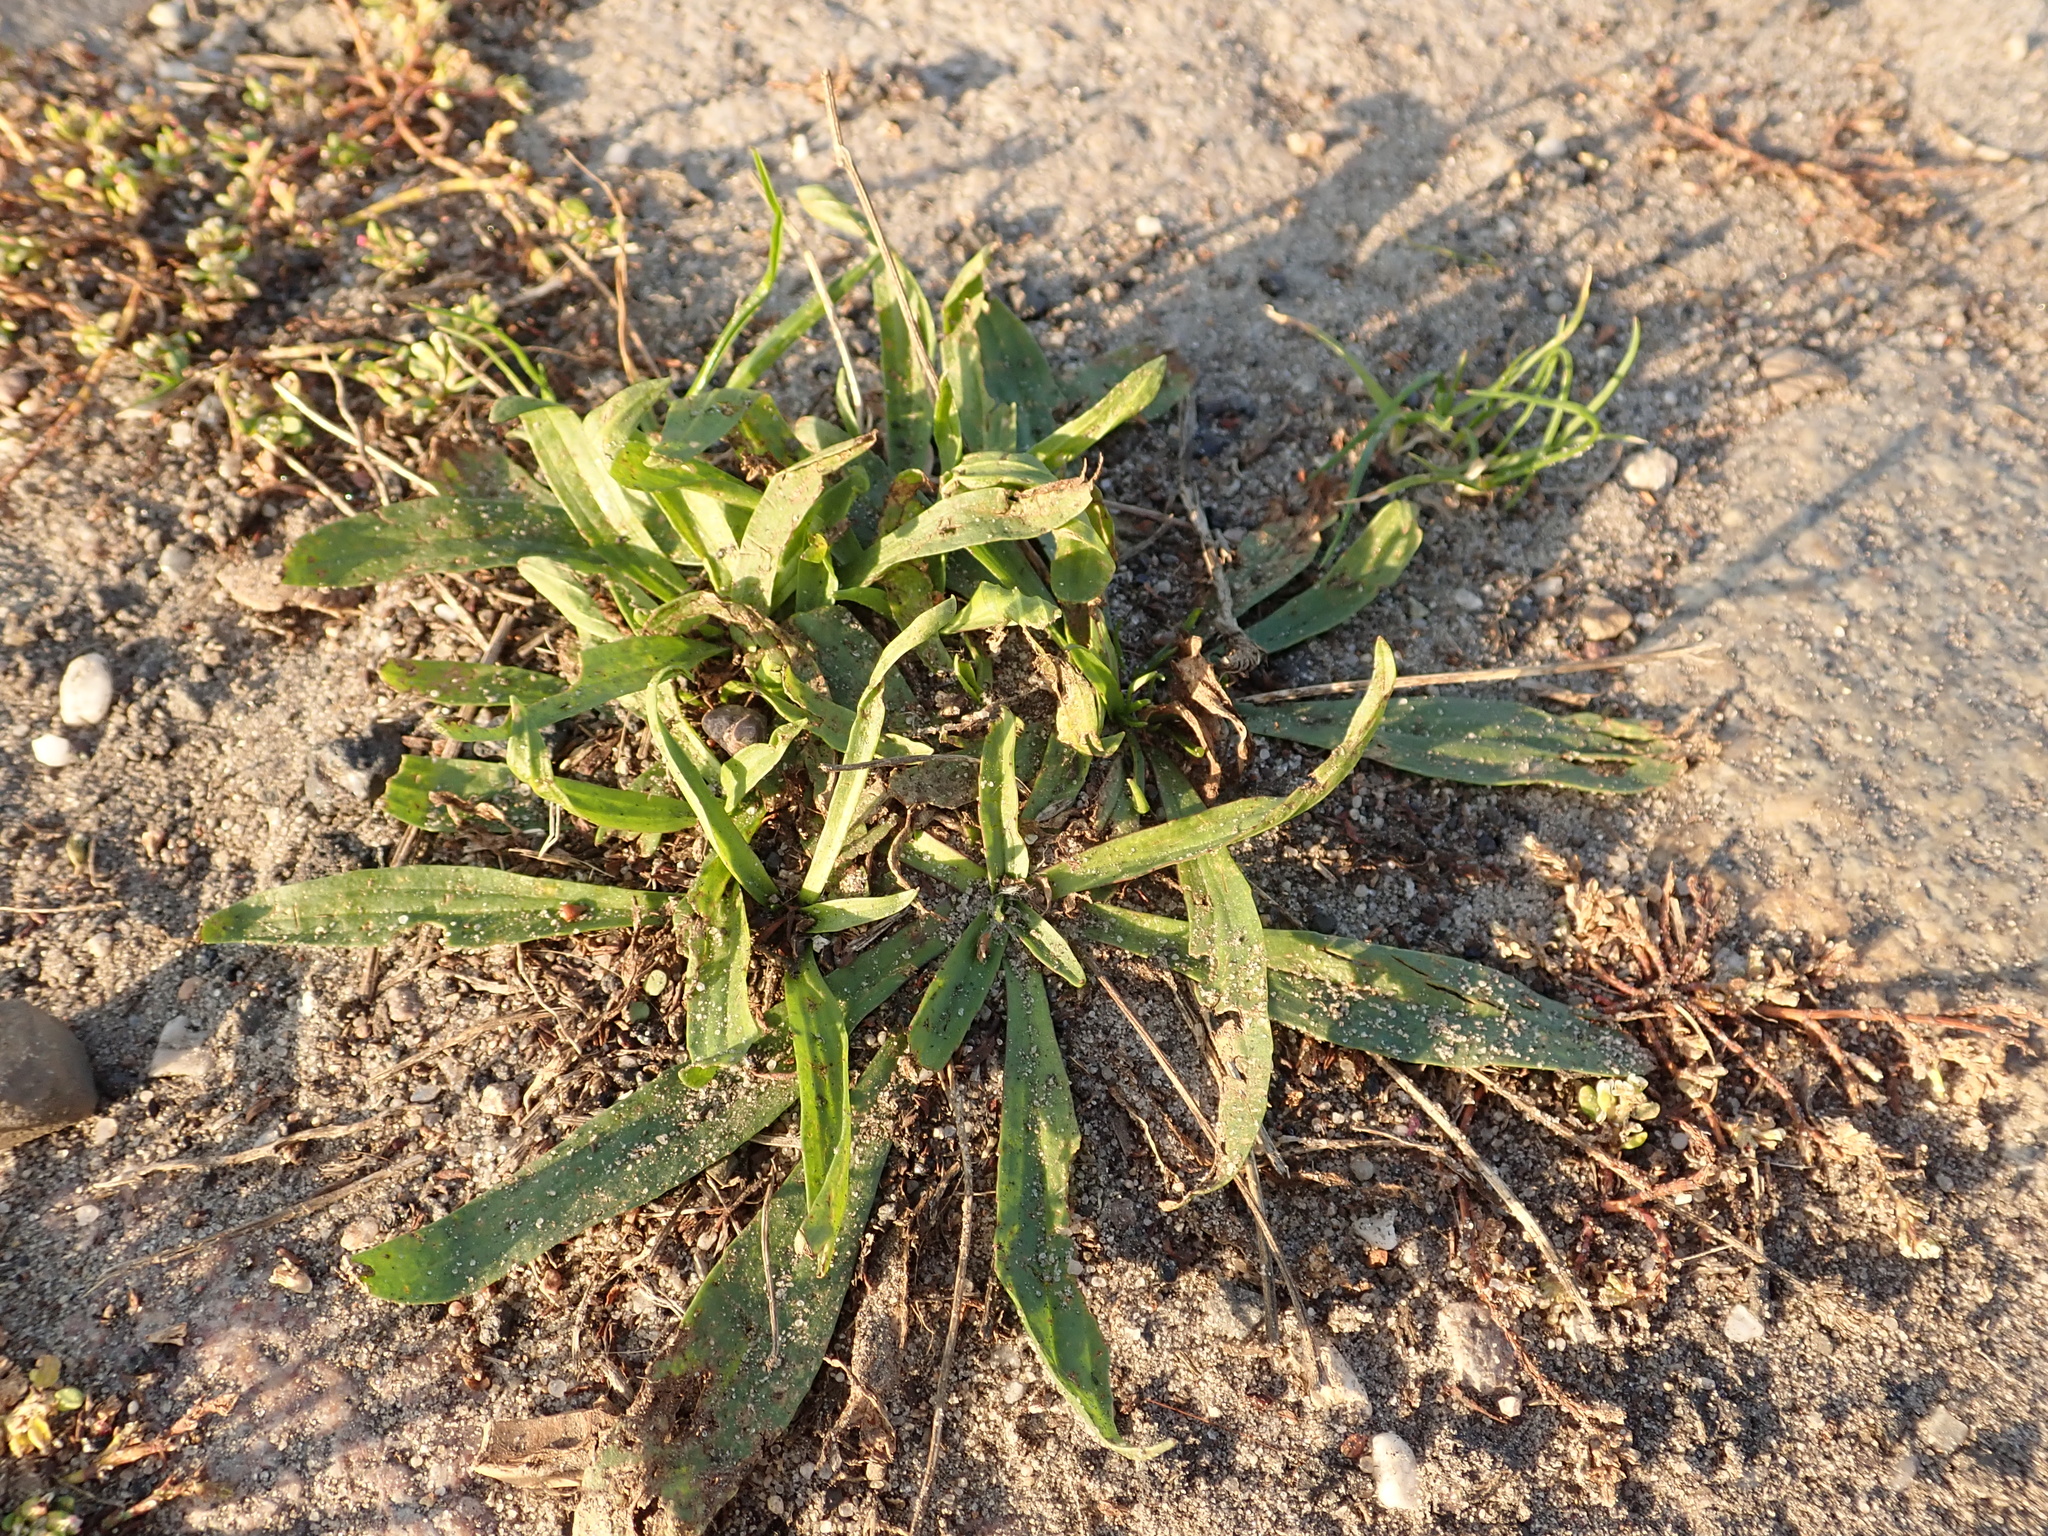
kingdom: Plantae
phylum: Tracheophyta
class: Magnoliopsida
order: Lamiales
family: Plantaginaceae
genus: Plantago
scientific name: Plantago lanceolata
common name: Ribwort plantain
